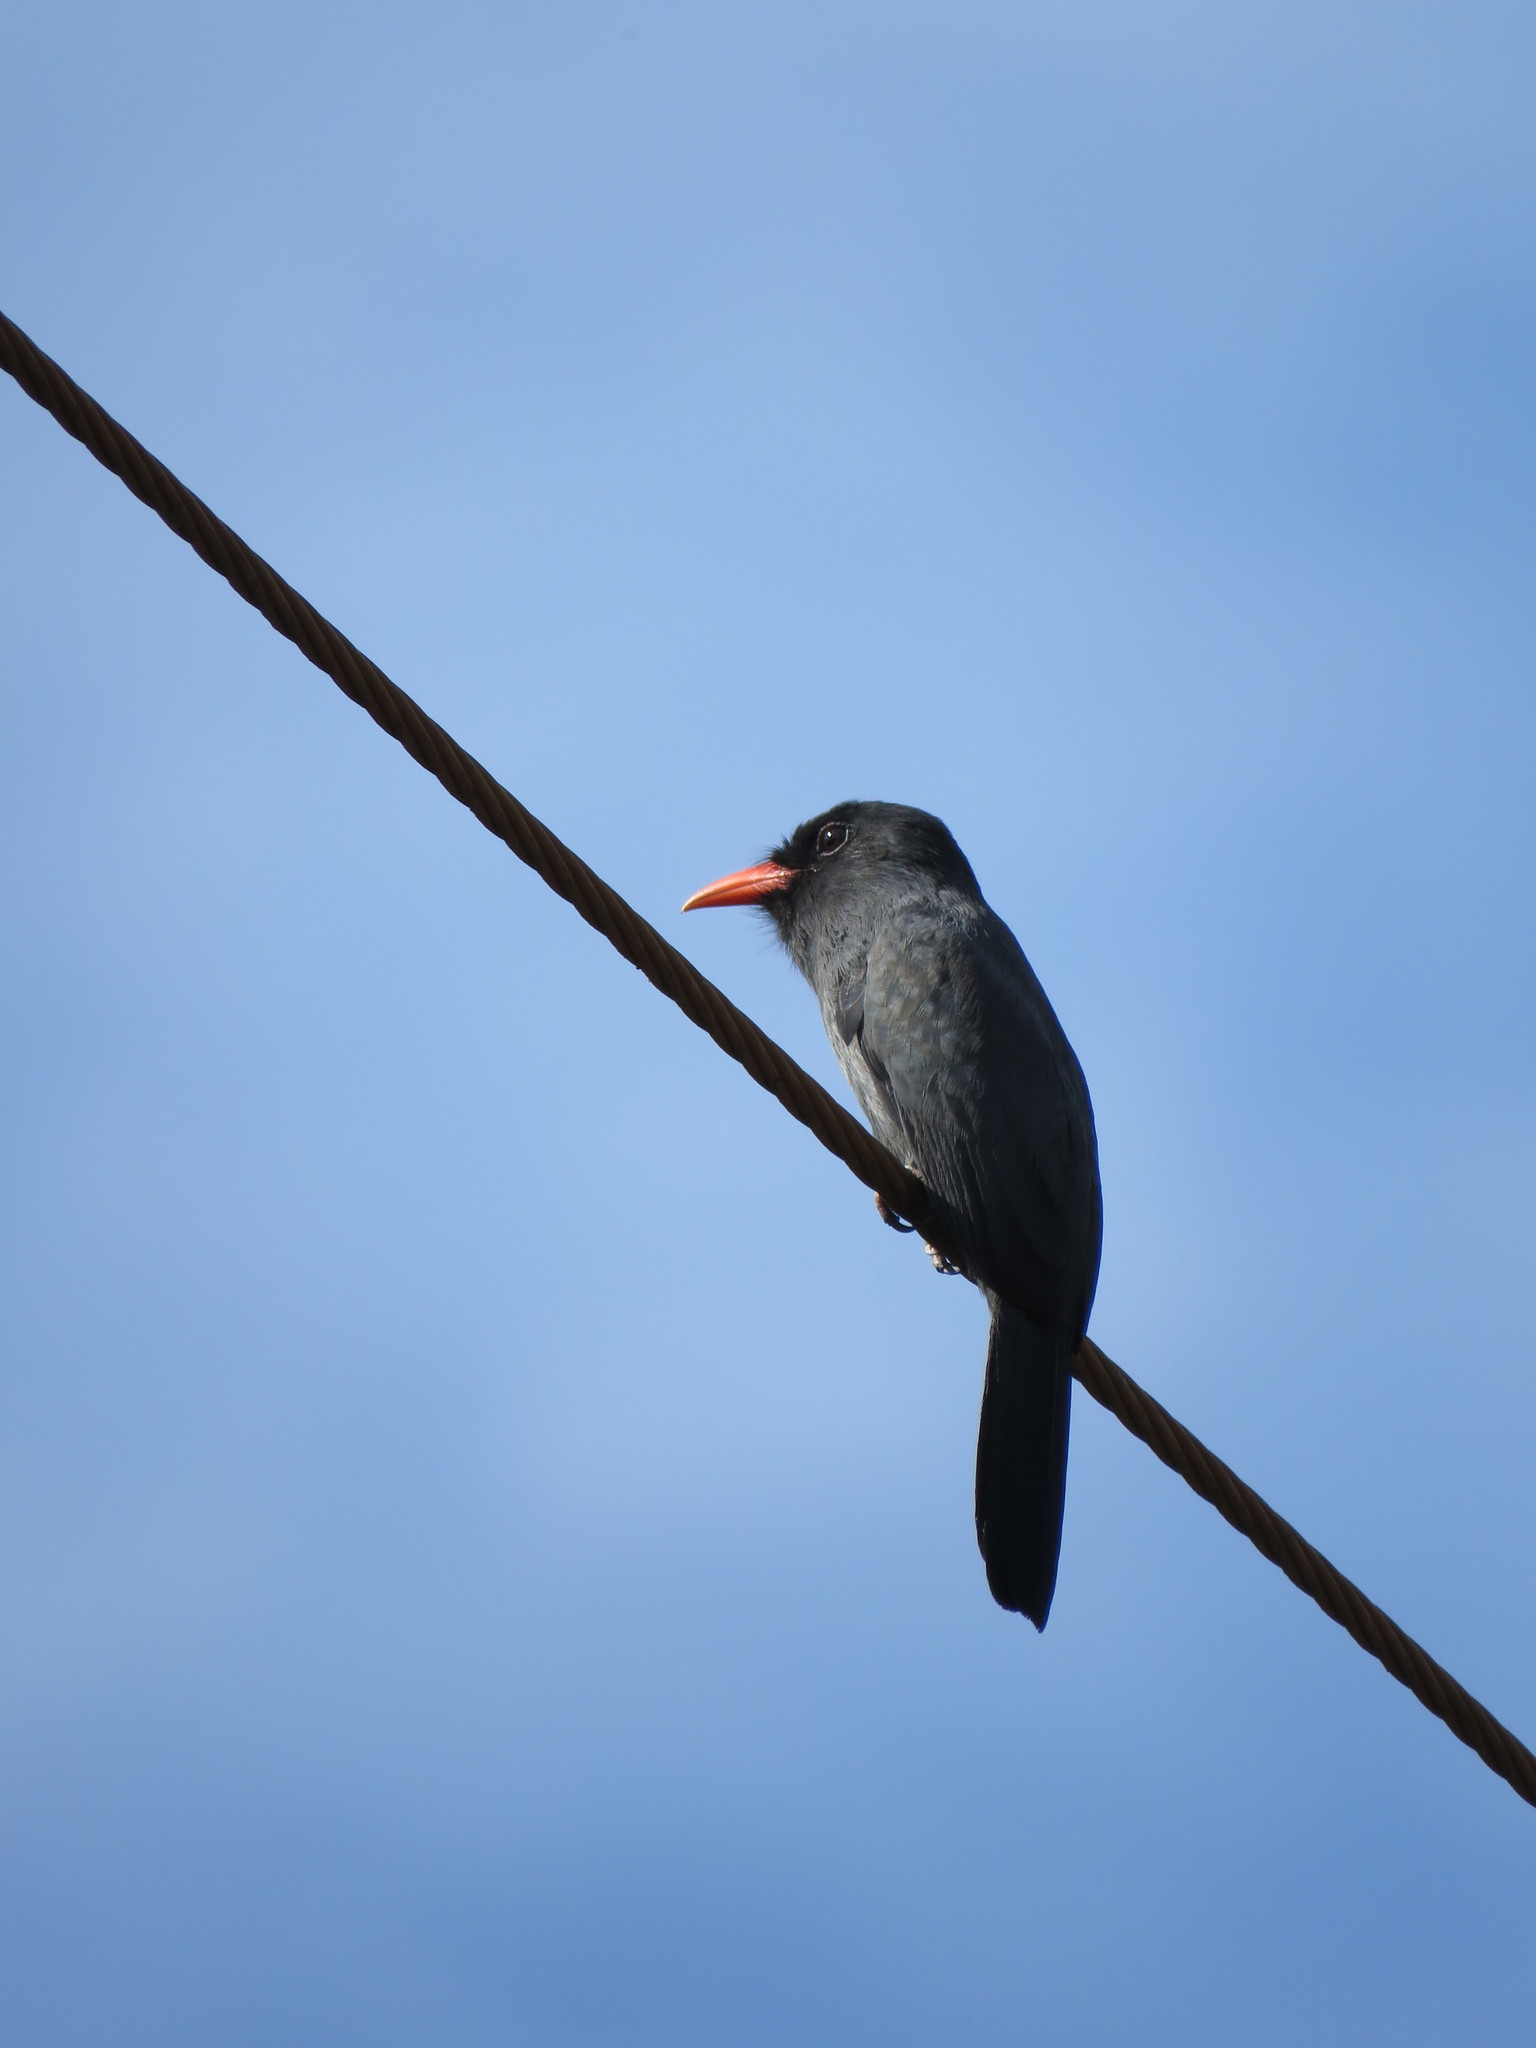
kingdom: Animalia
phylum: Chordata
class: Aves
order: Piciformes
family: Bucconidae
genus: Monasa
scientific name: Monasa nigrifrons
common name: Black-fronted nunbird
